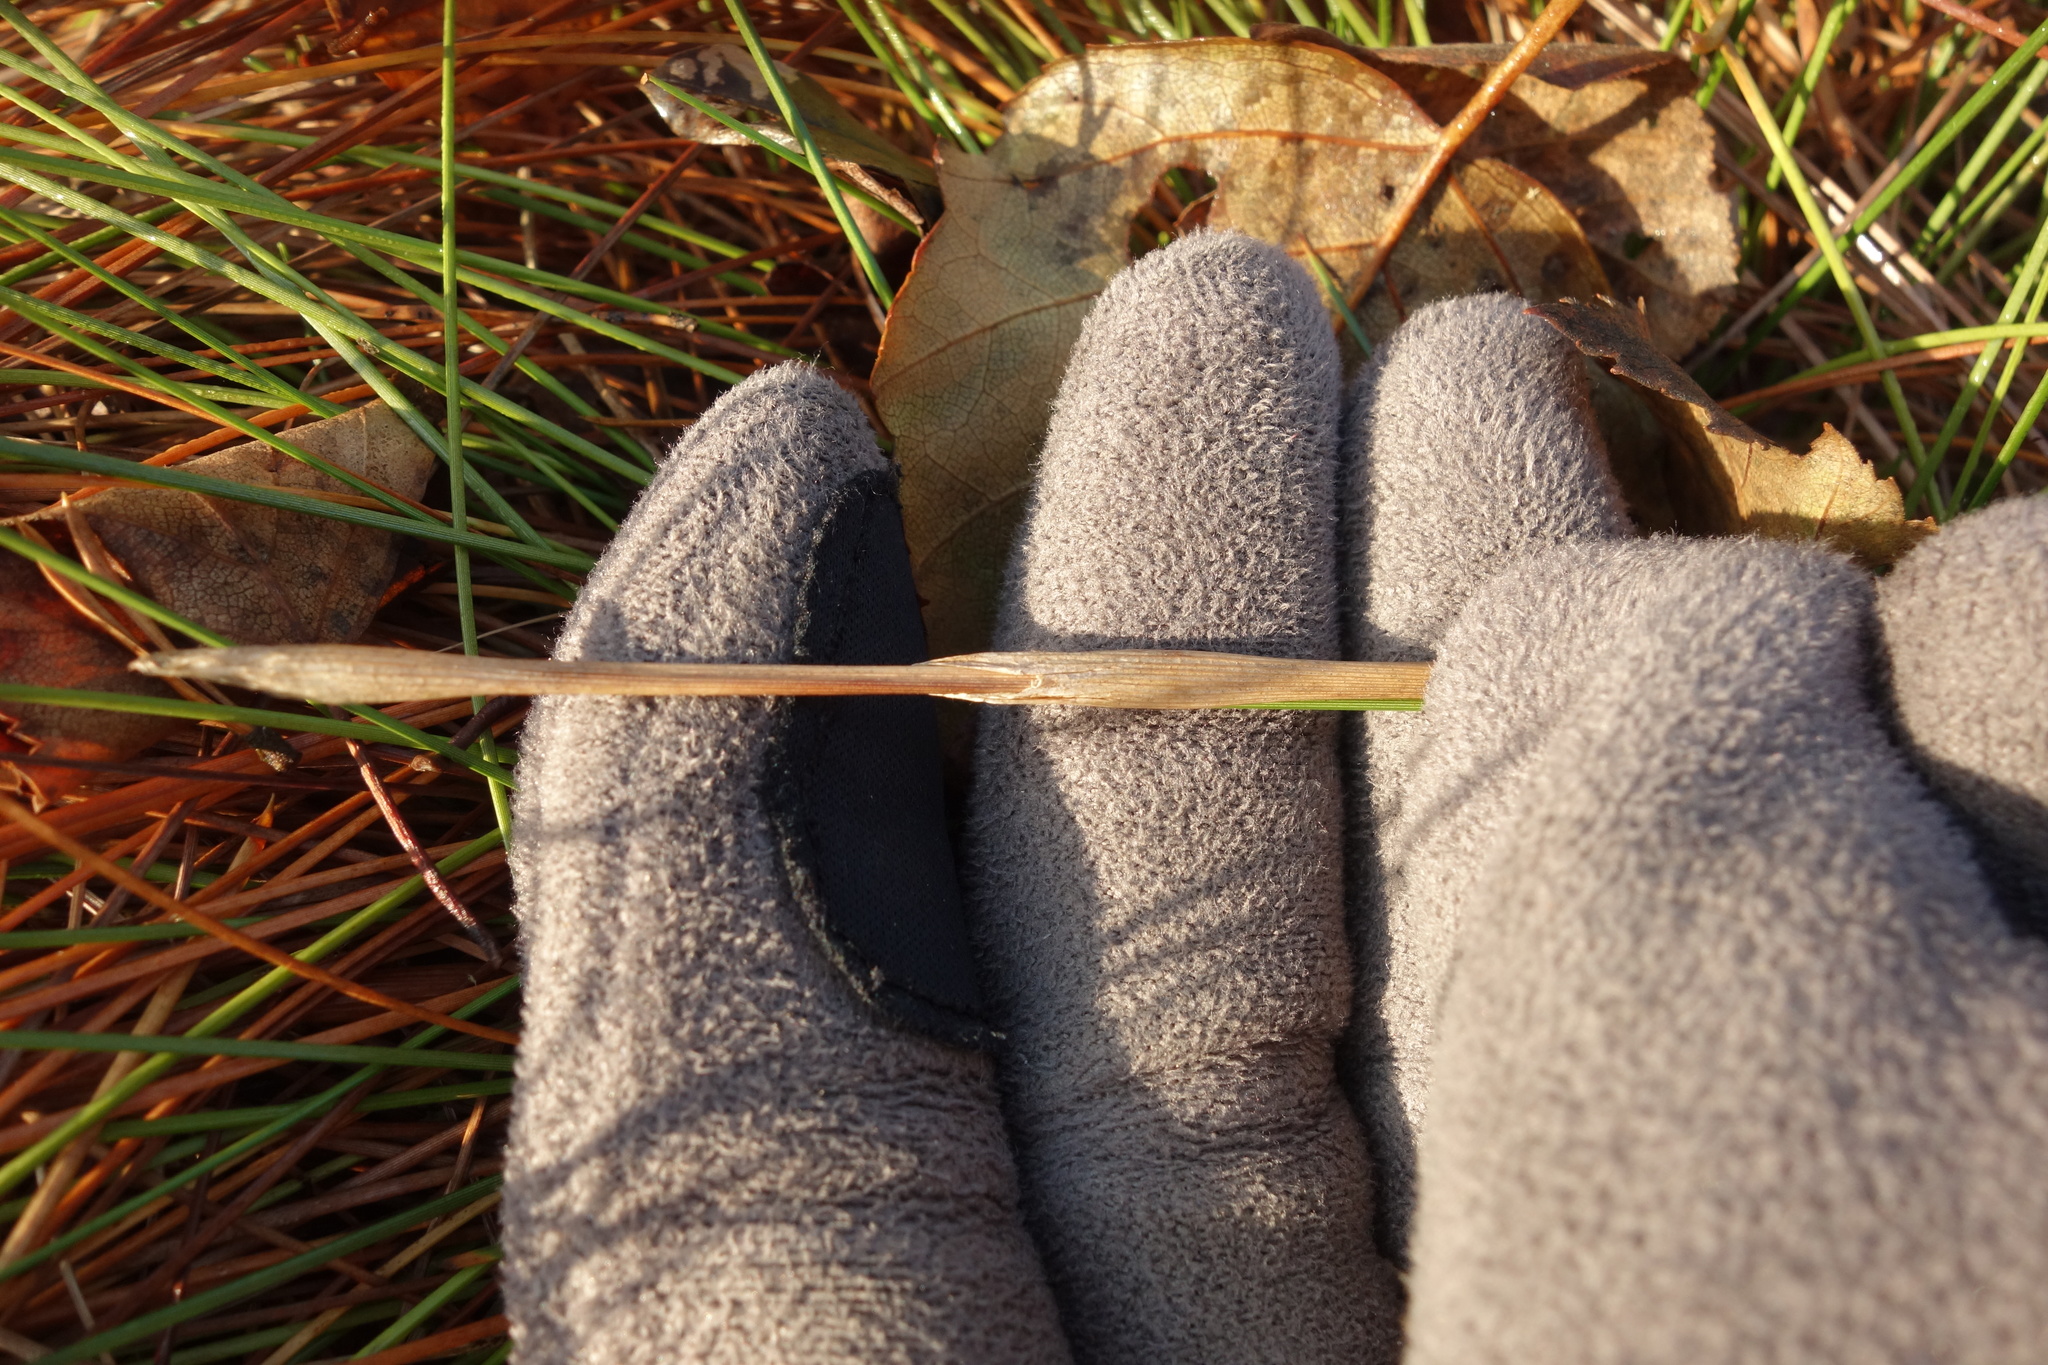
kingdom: Plantae
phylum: Tracheophyta
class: Liliopsida
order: Poales
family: Cyperaceae
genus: Eriophorum
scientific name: Eriophorum vaginatum
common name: Hare's-tail cottongrass
